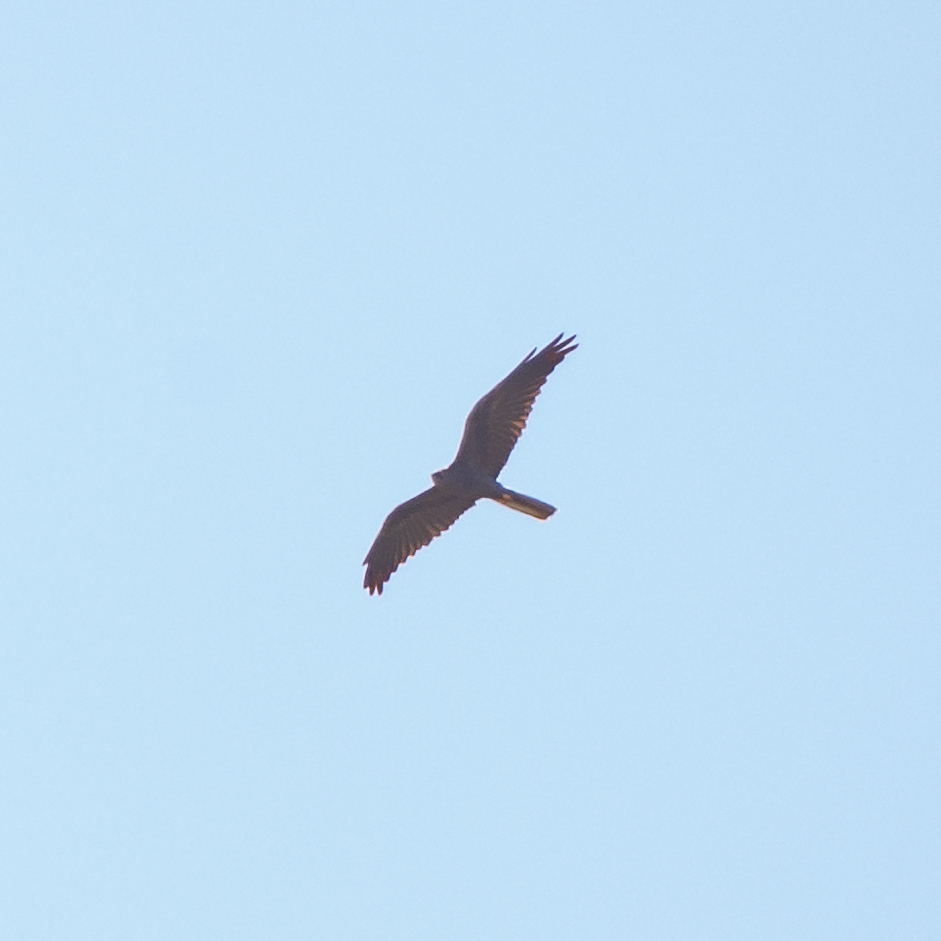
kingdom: Animalia
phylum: Chordata
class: Aves
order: Accipitriformes
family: Accipitridae
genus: Circus
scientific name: Circus pygargus
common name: Montagu's harrier
